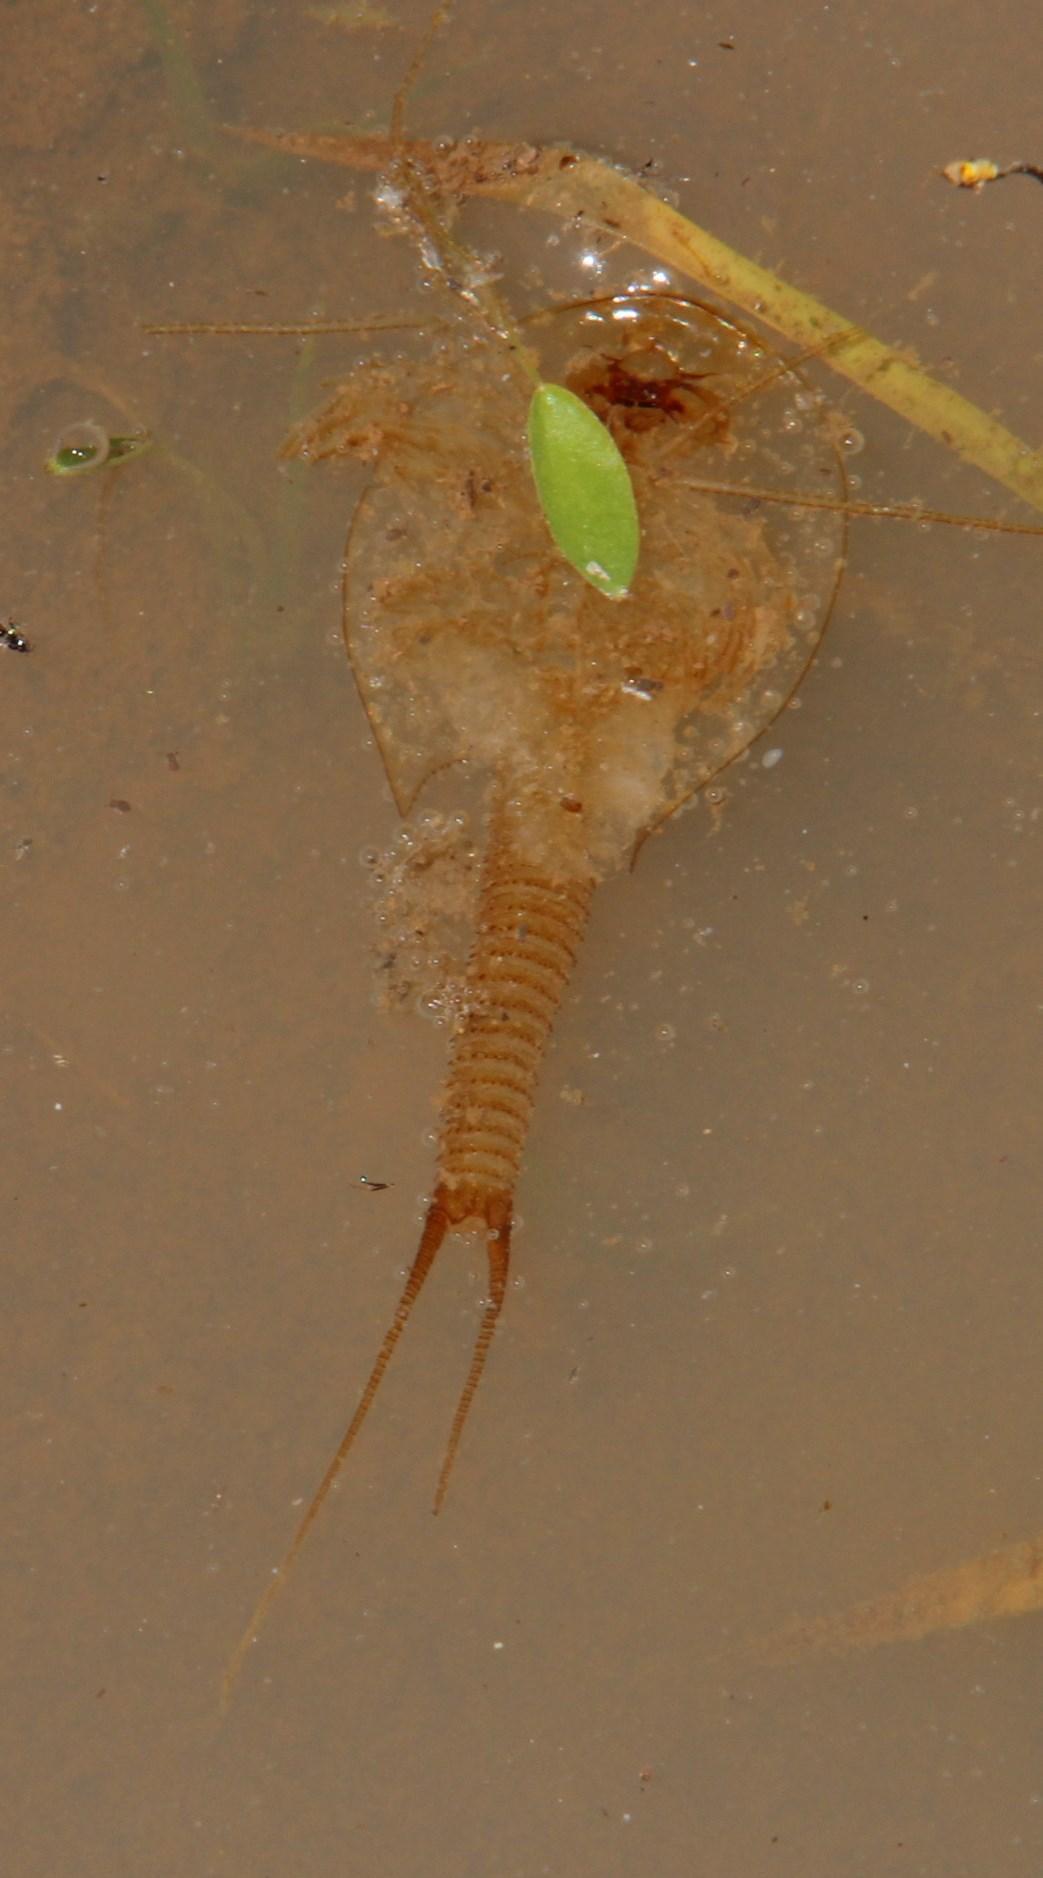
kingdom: Animalia
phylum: Arthropoda
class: Branchiopoda
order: Notostraca
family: Triopsidae
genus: Triops
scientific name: Triops granarius
